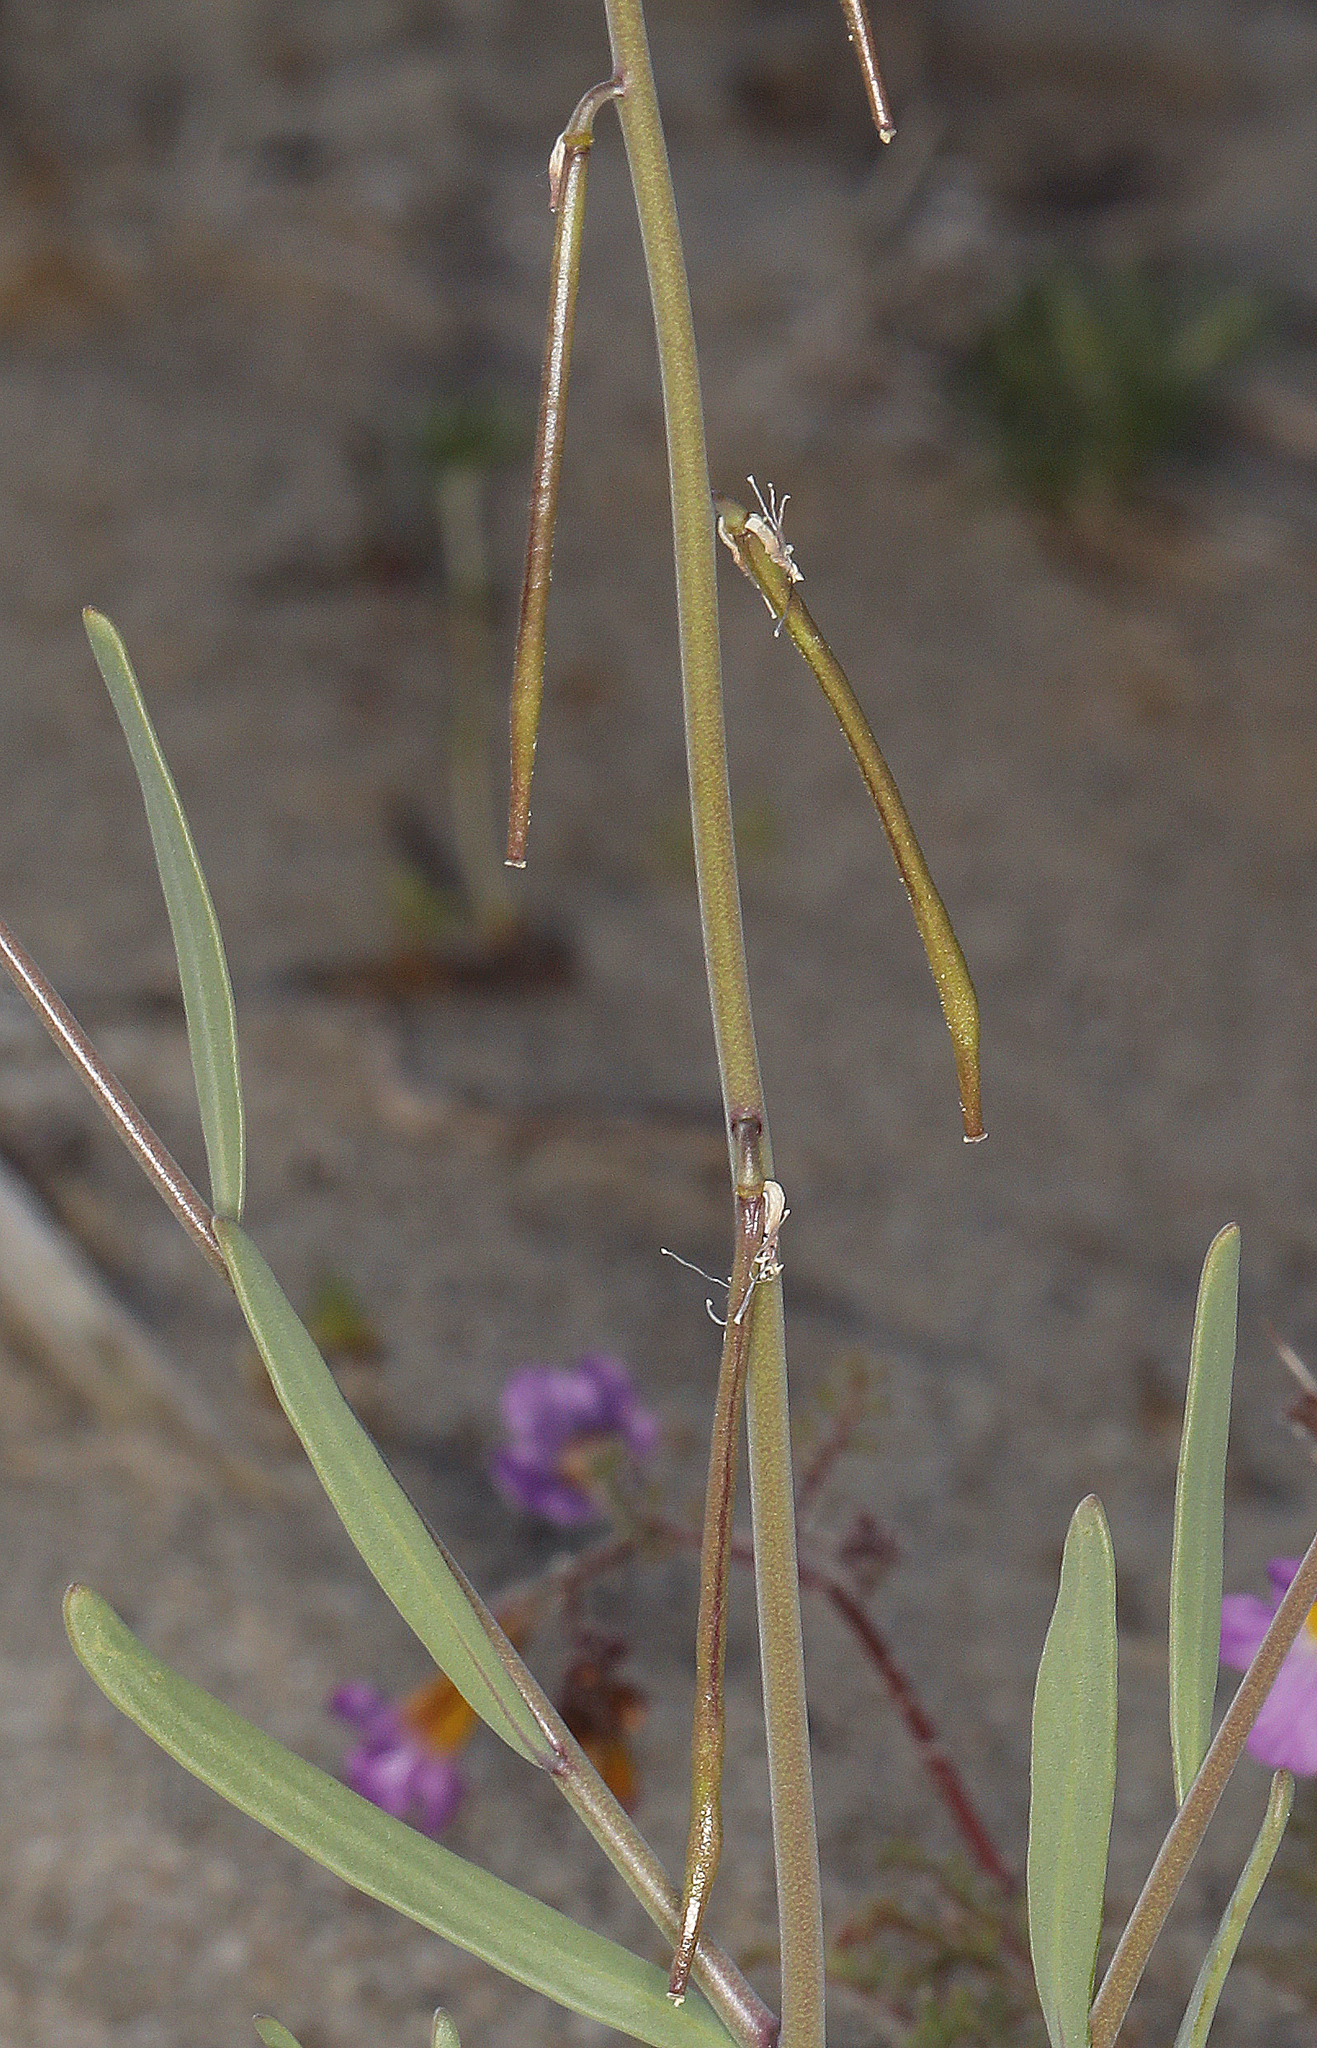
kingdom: Plantae
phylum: Tracheophyta
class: Magnoliopsida
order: Brassicales
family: Brassicaceae
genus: Streptanthus
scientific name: Streptanthus longirostris
